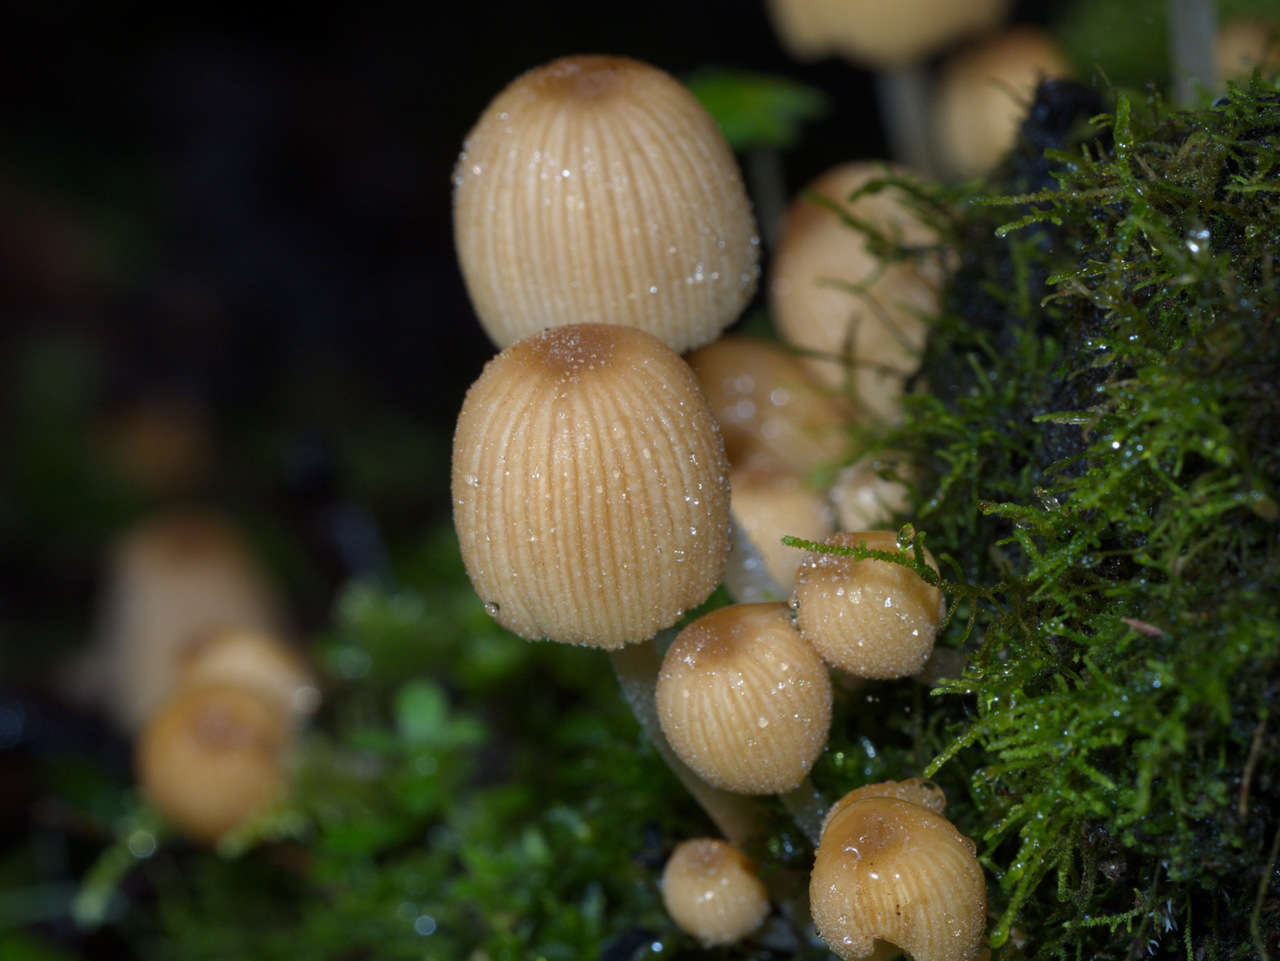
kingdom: Fungi
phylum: Basidiomycota
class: Agaricomycetes
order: Agaricales
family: Psathyrellaceae
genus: Coprinellus
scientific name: Coprinellus disseminatus
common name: Fairies' bonnets
